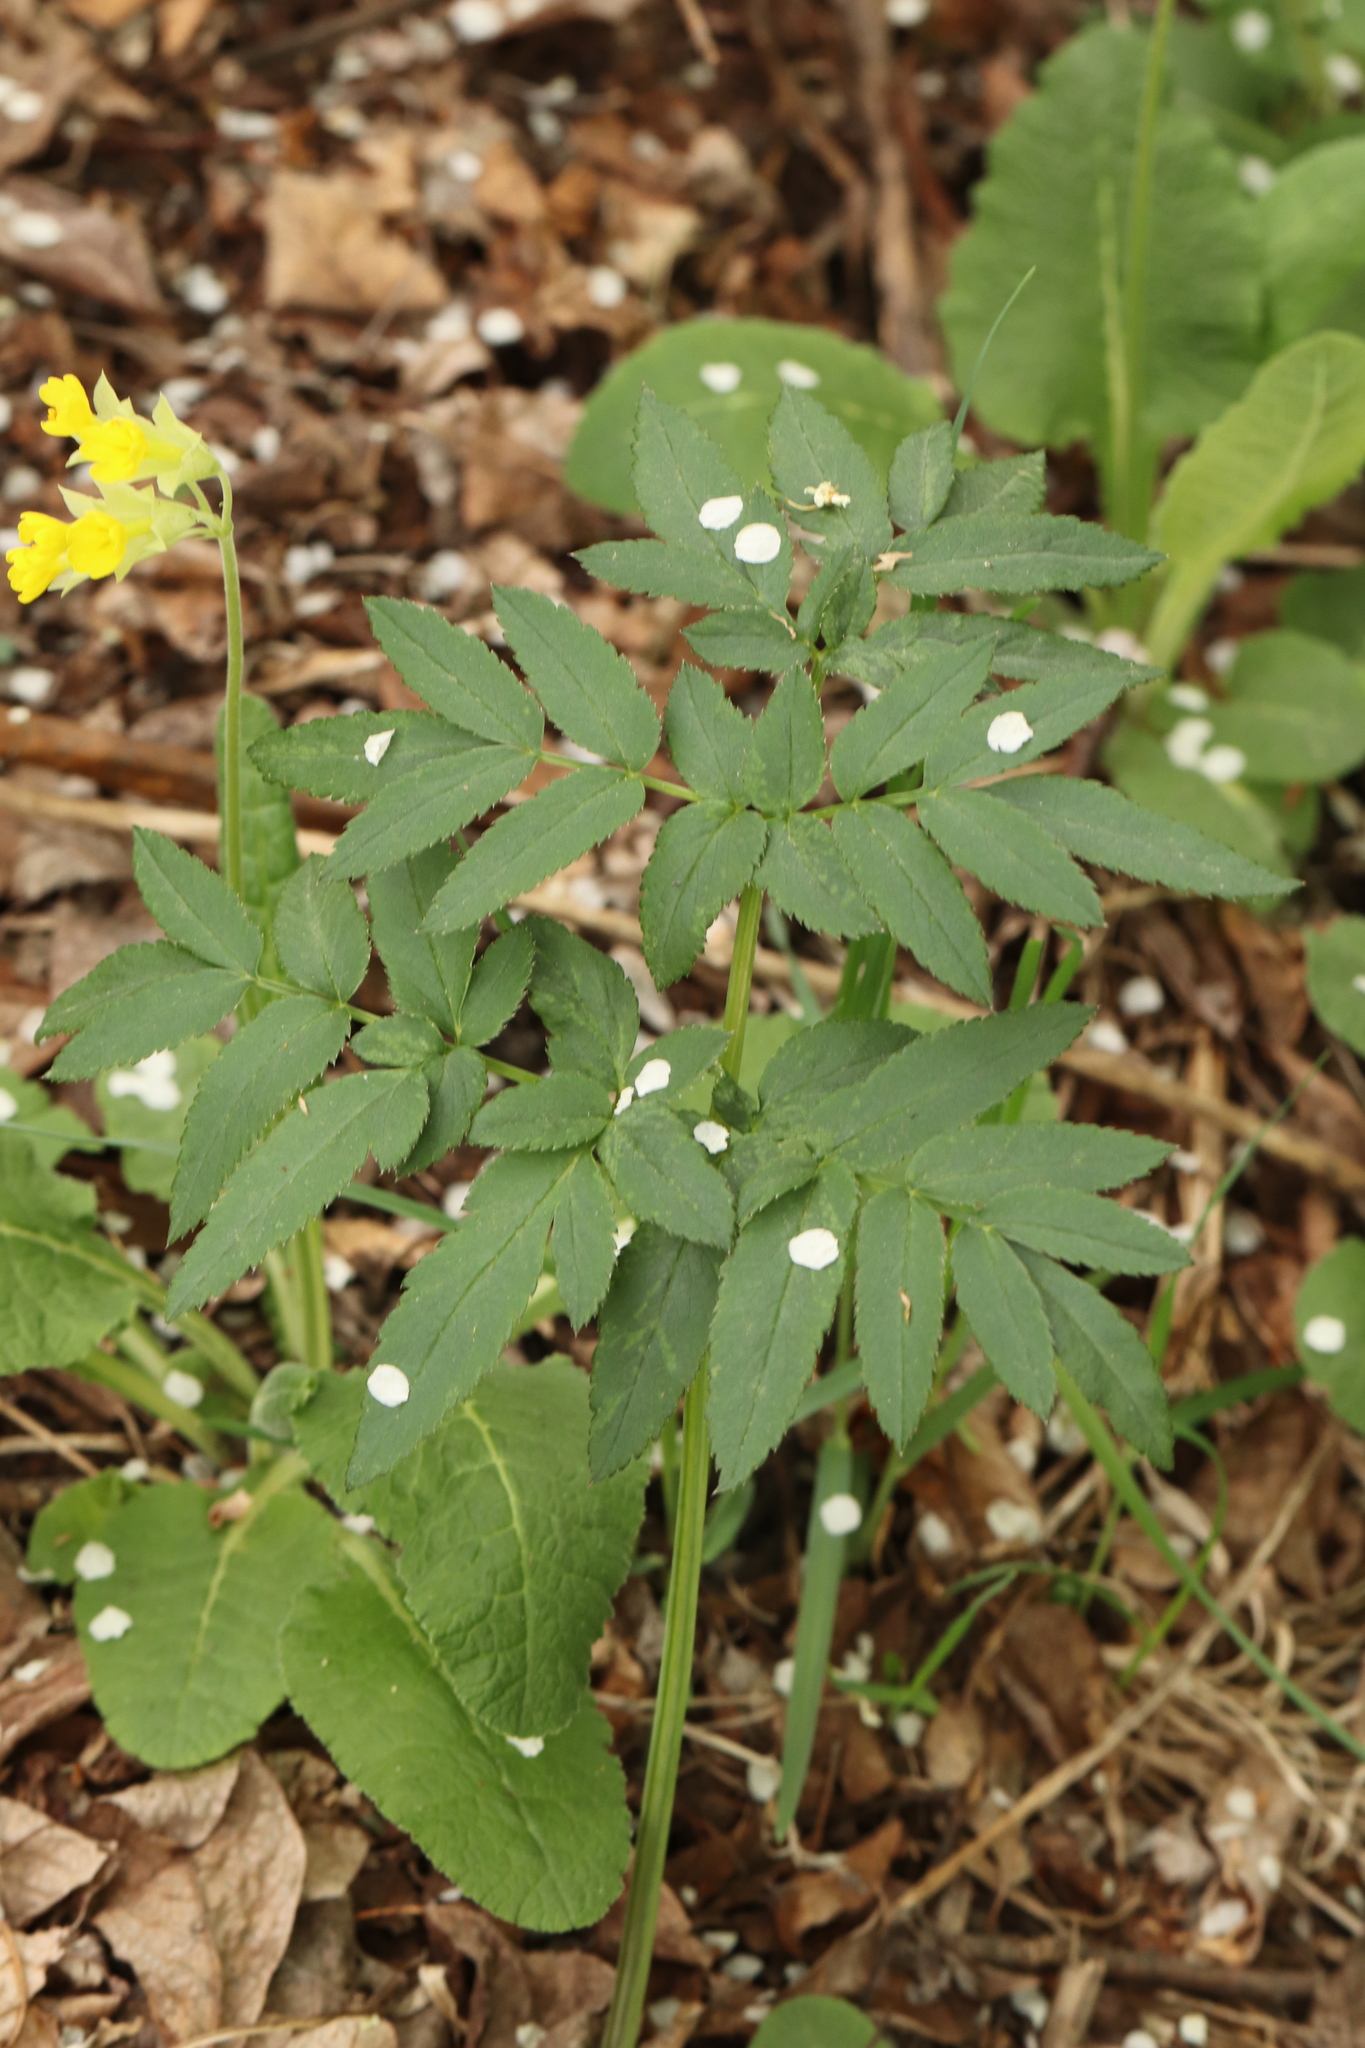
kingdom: Plantae
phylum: Tracheophyta
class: Magnoliopsida
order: Apiales
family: Apiaceae
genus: Angelica
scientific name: Angelica sylvestris
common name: Wild angelica
